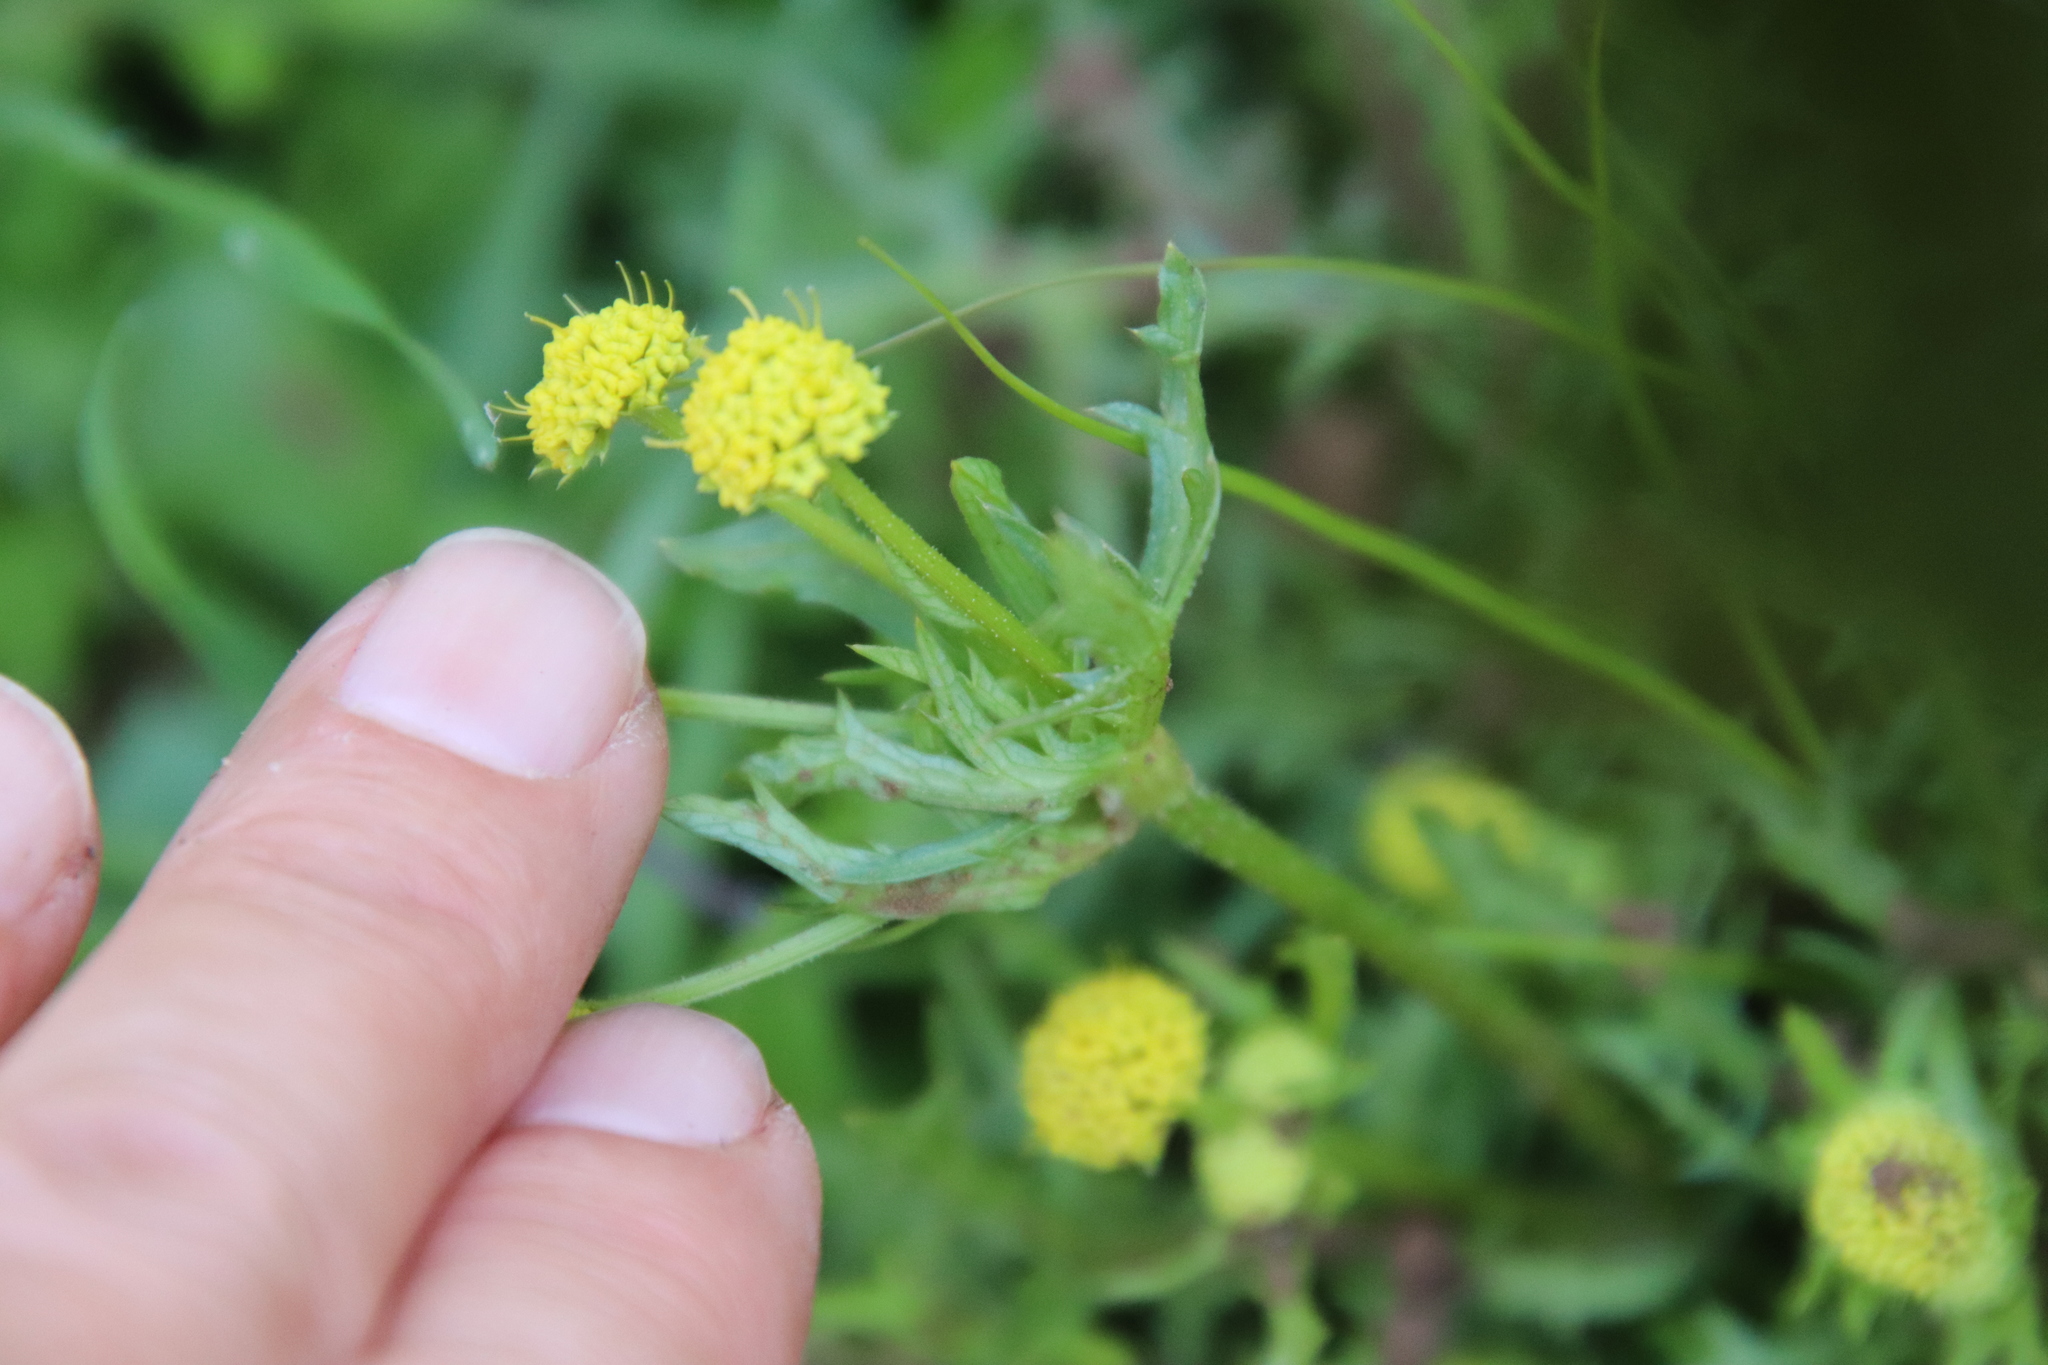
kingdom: Plantae
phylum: Tracheophyta
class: Magnoliopsida
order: Apiales
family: Apiaceae
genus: Sanicula
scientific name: Sanicula arguta
